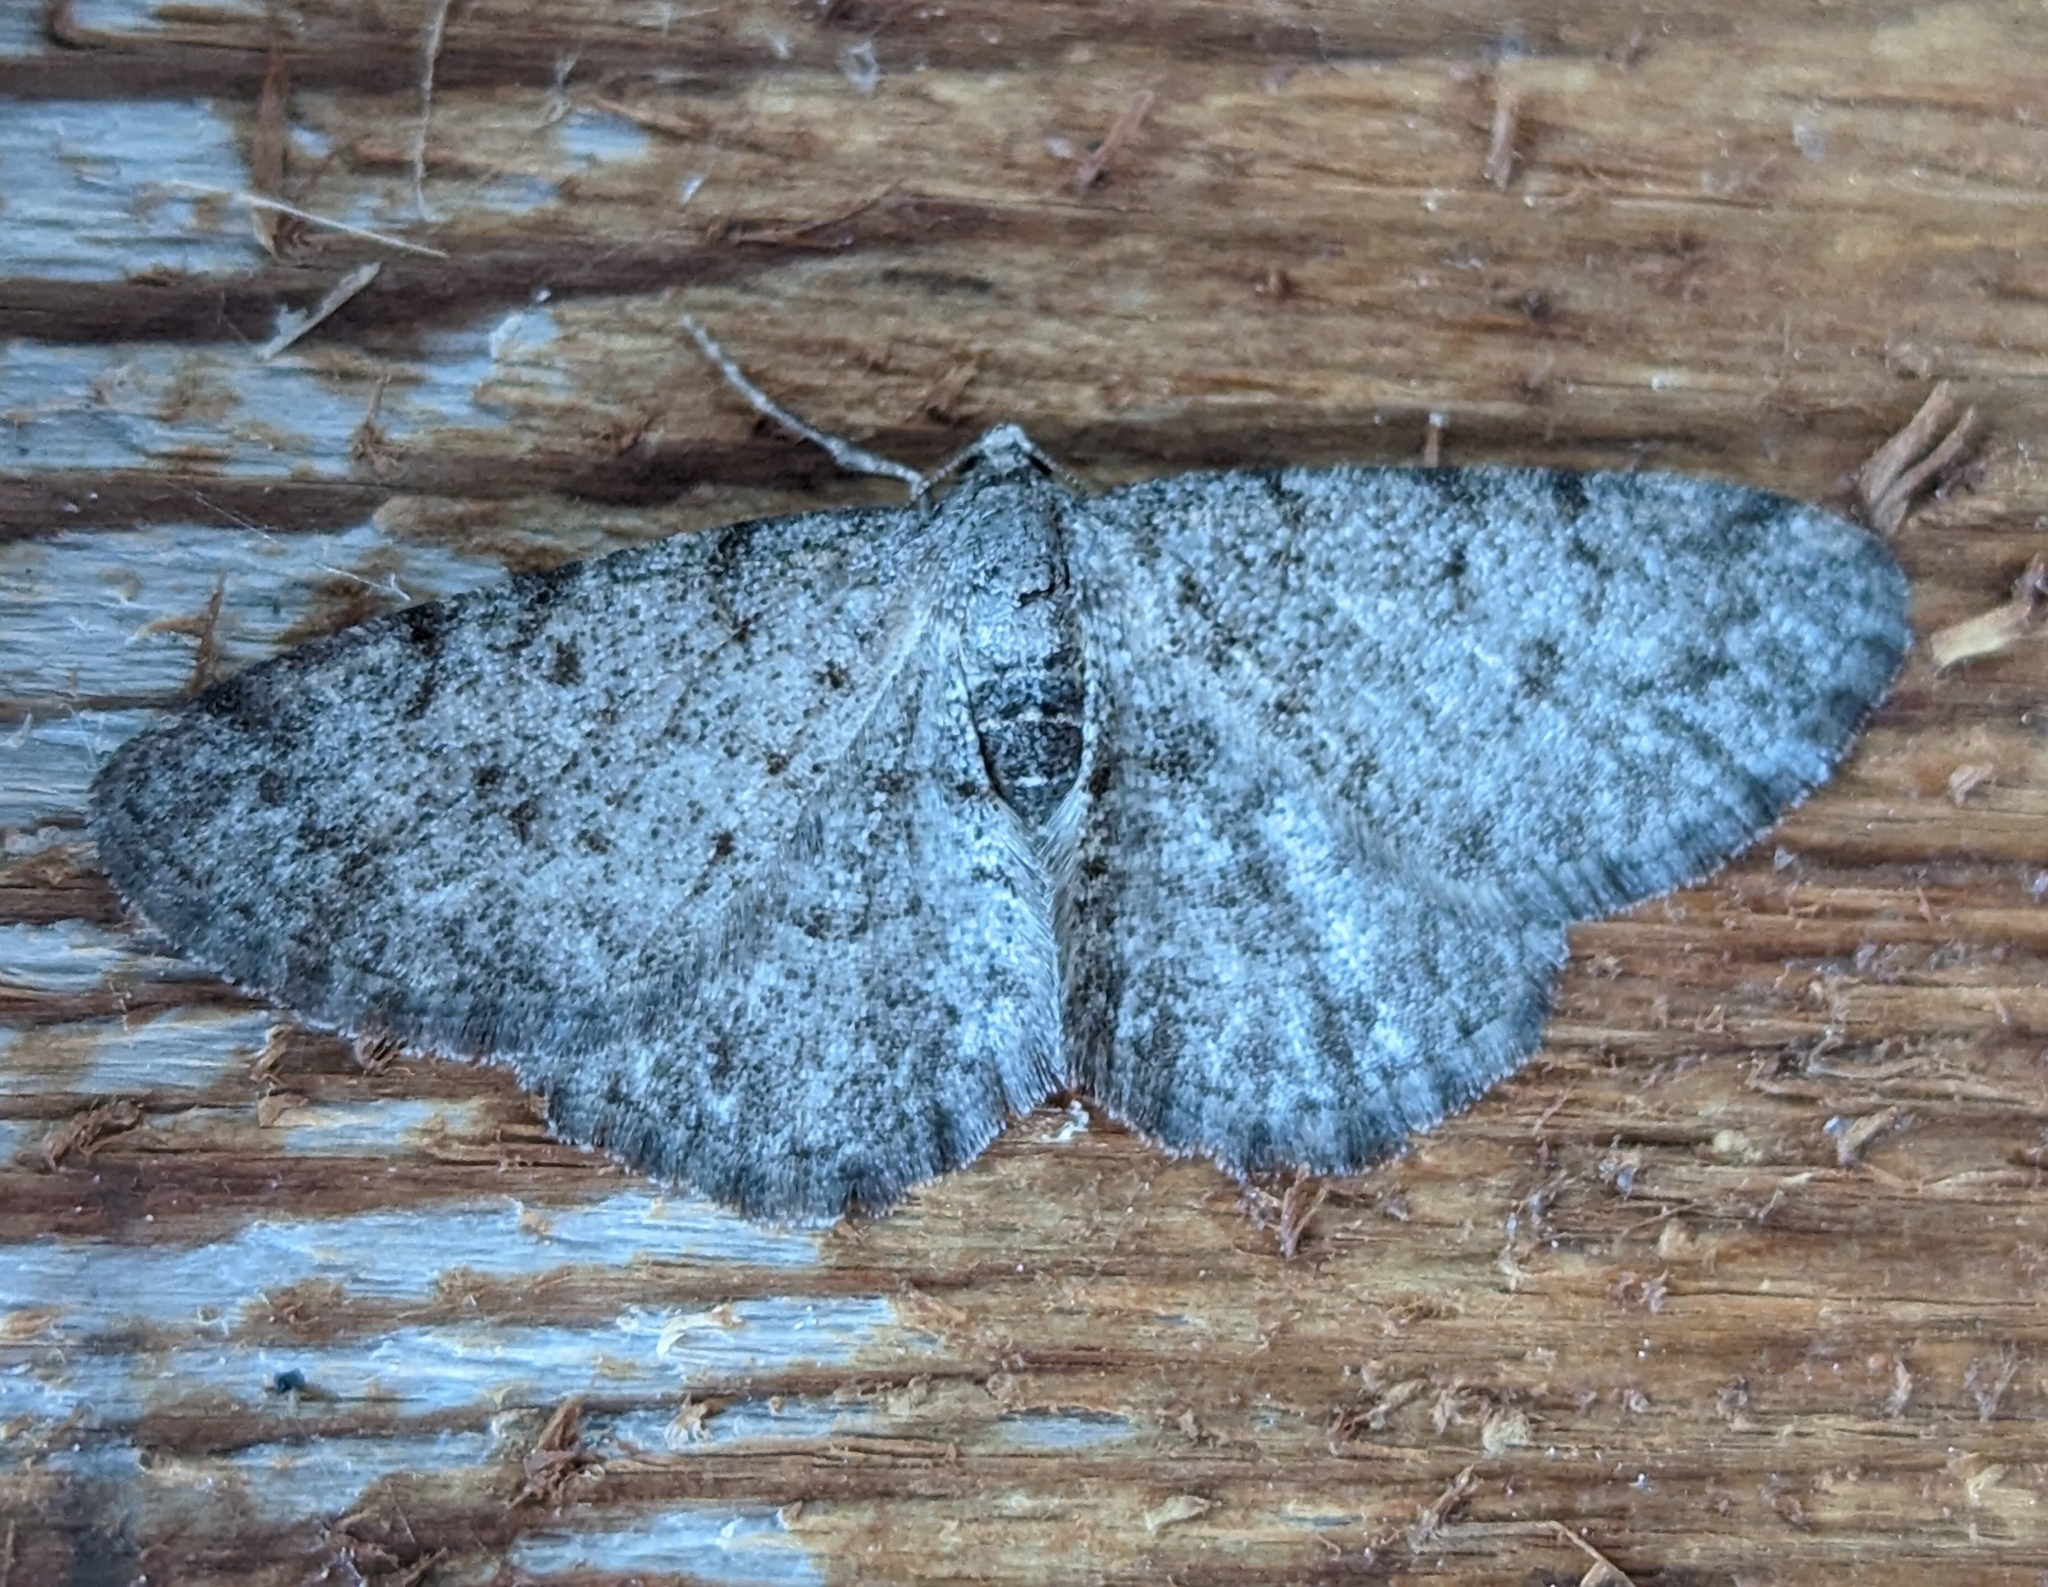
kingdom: Animalia
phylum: Arthropoda
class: Insecta
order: Lepidoptera
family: Geometridae
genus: Aethalura
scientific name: Aethalura intertexta
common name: Four-barred gray
